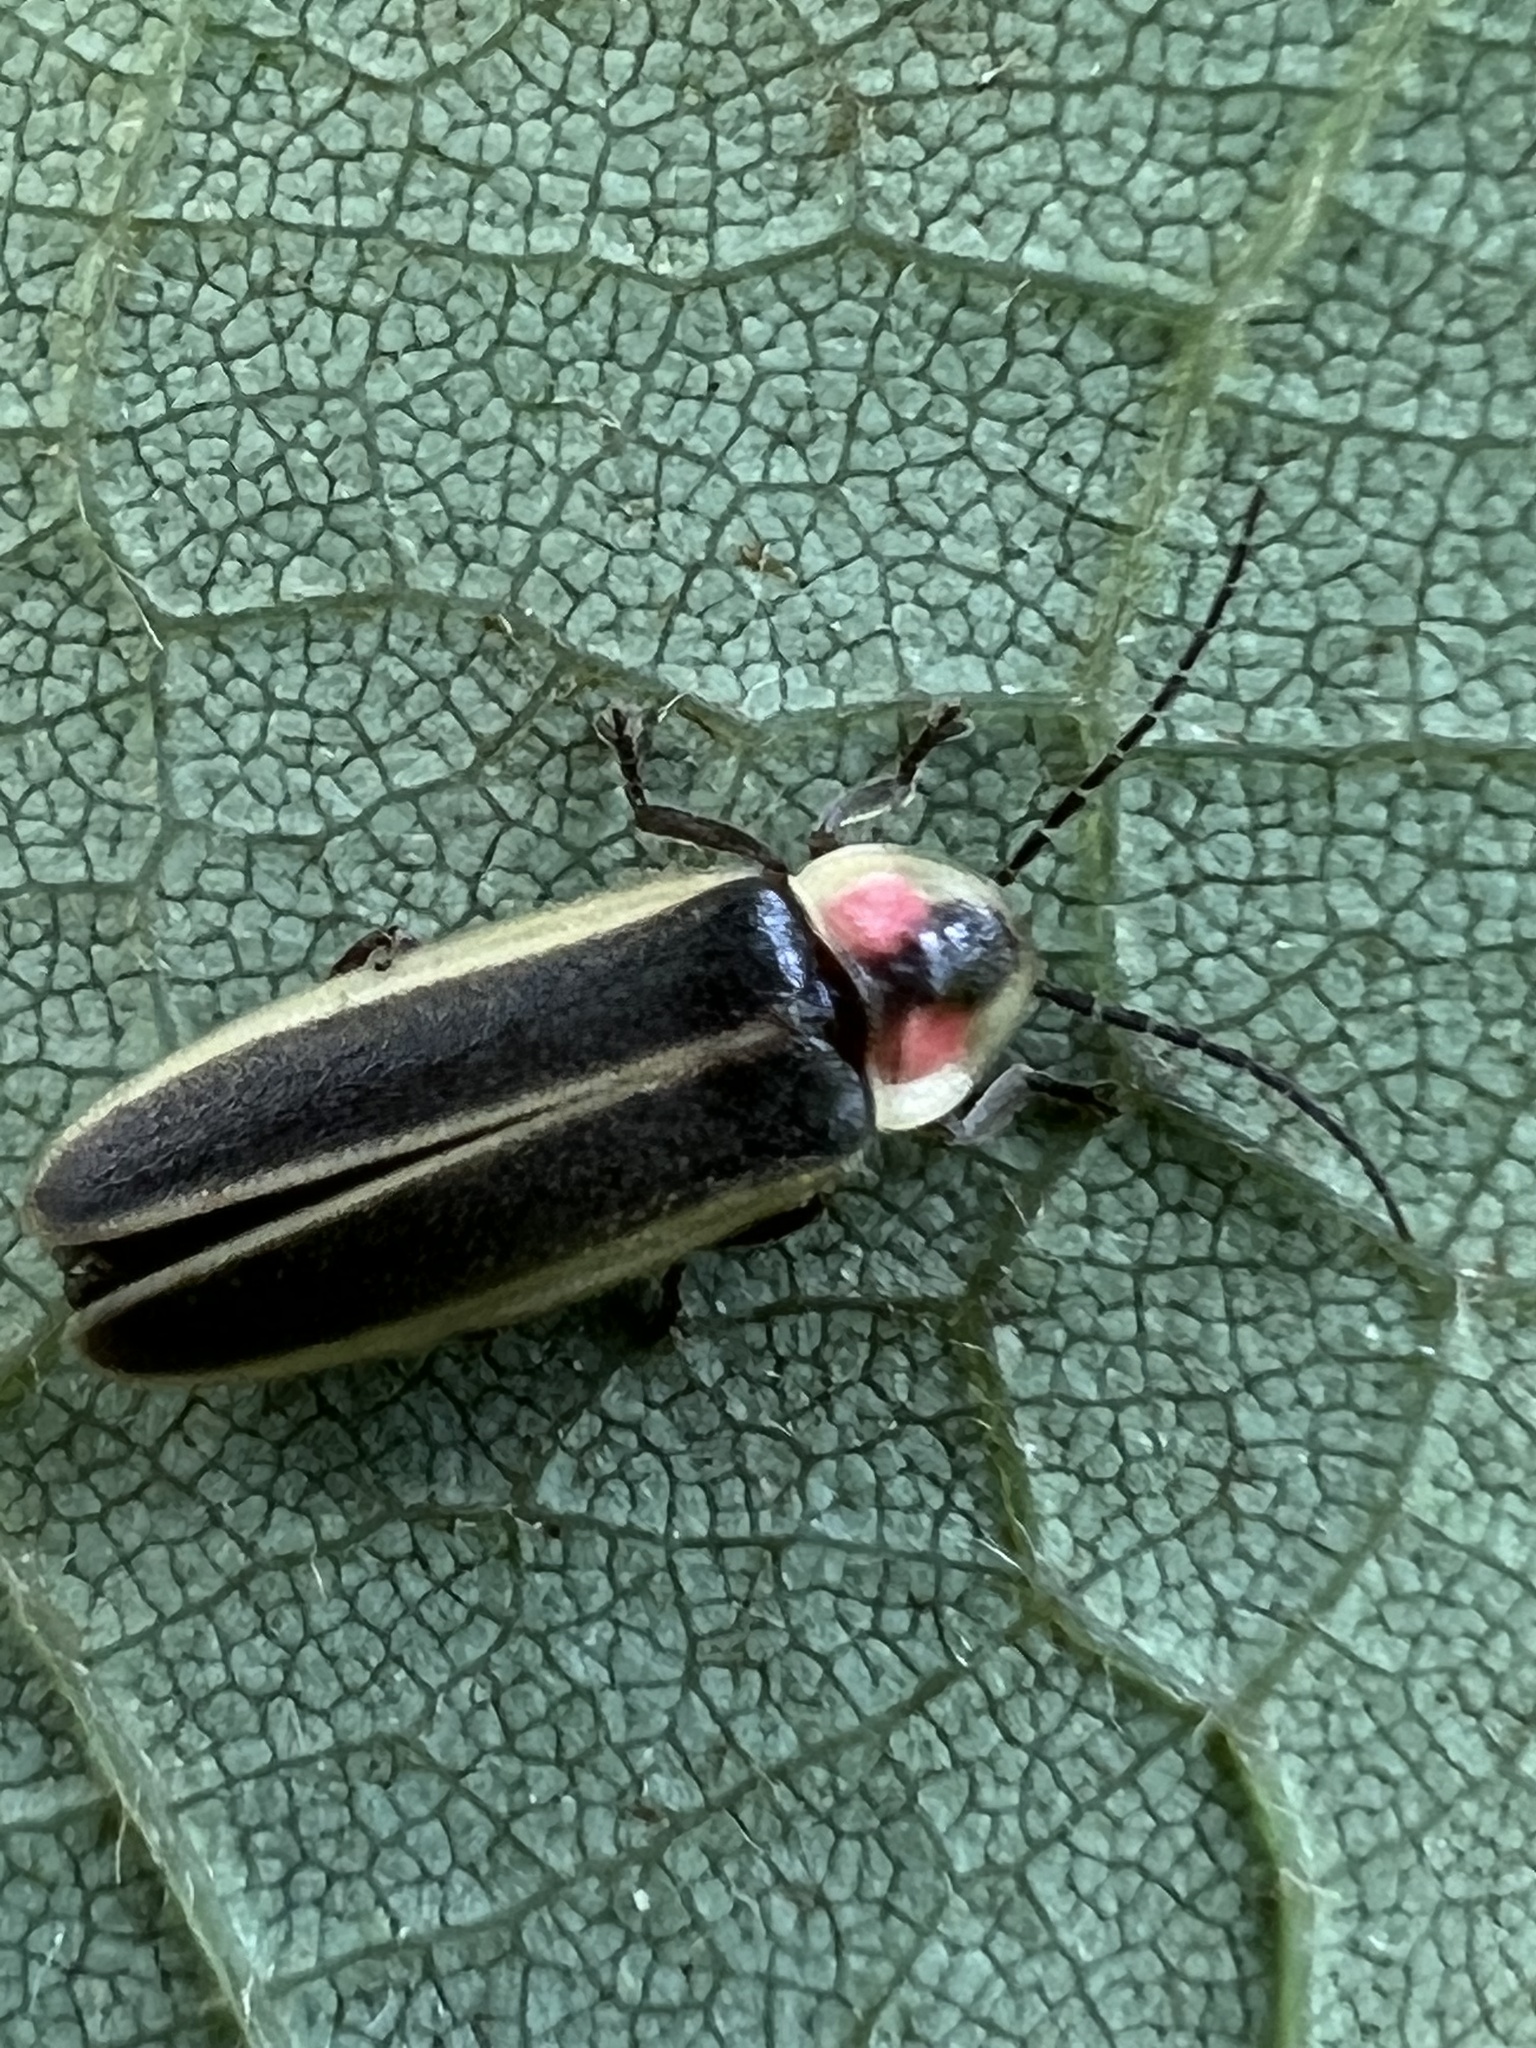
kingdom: Animalia
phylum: Arthropoda
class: Insecta
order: Coleoptera
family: Lampyridae
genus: Photinus
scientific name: Photinus pyralis
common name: Big dipper firefly
